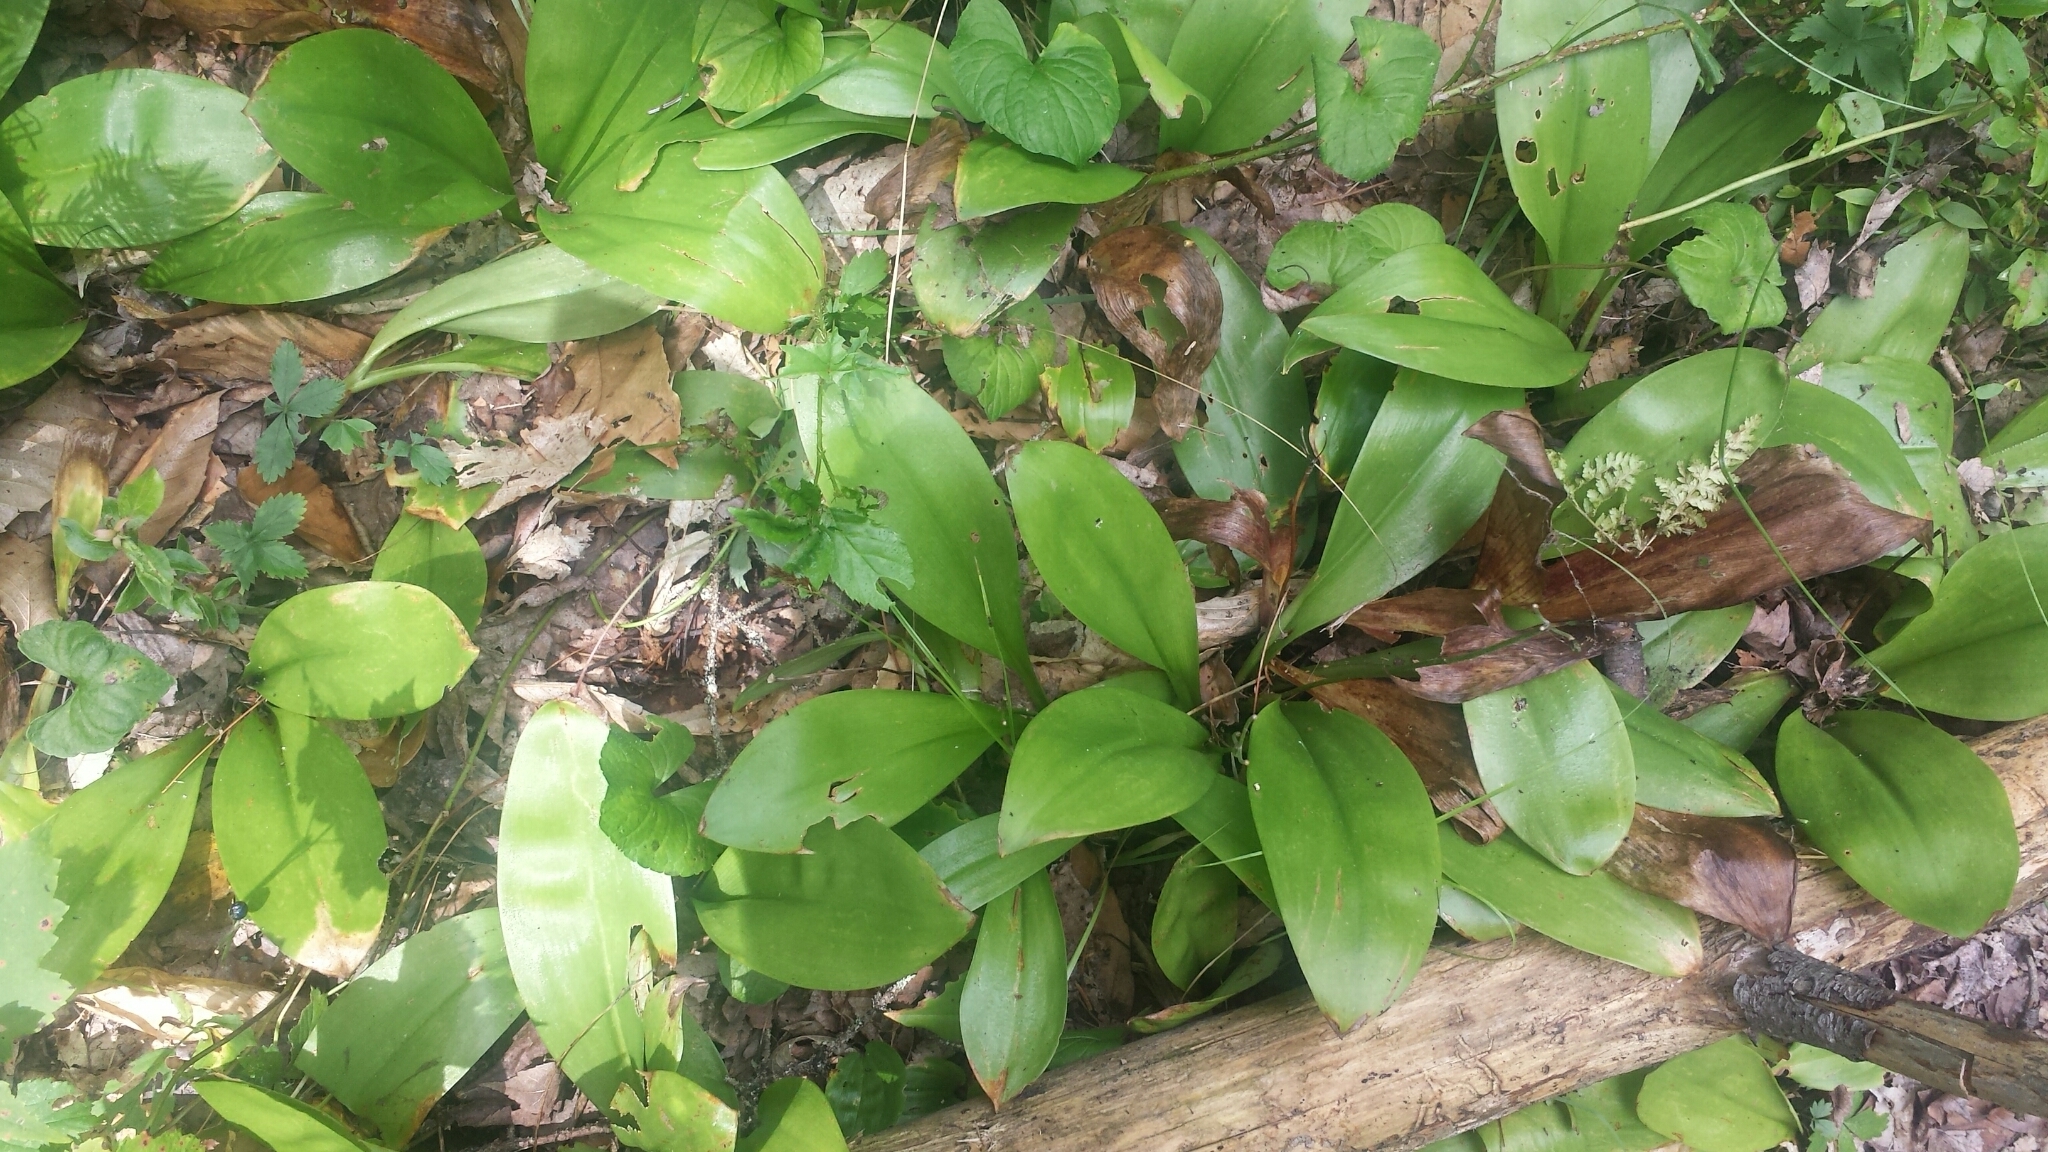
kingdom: Plantae
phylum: Tracheophyta
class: Liliopsida
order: Liliales
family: Liliaceae
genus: Clintonia
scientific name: Clintonia borealis
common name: Yellow clintonia
